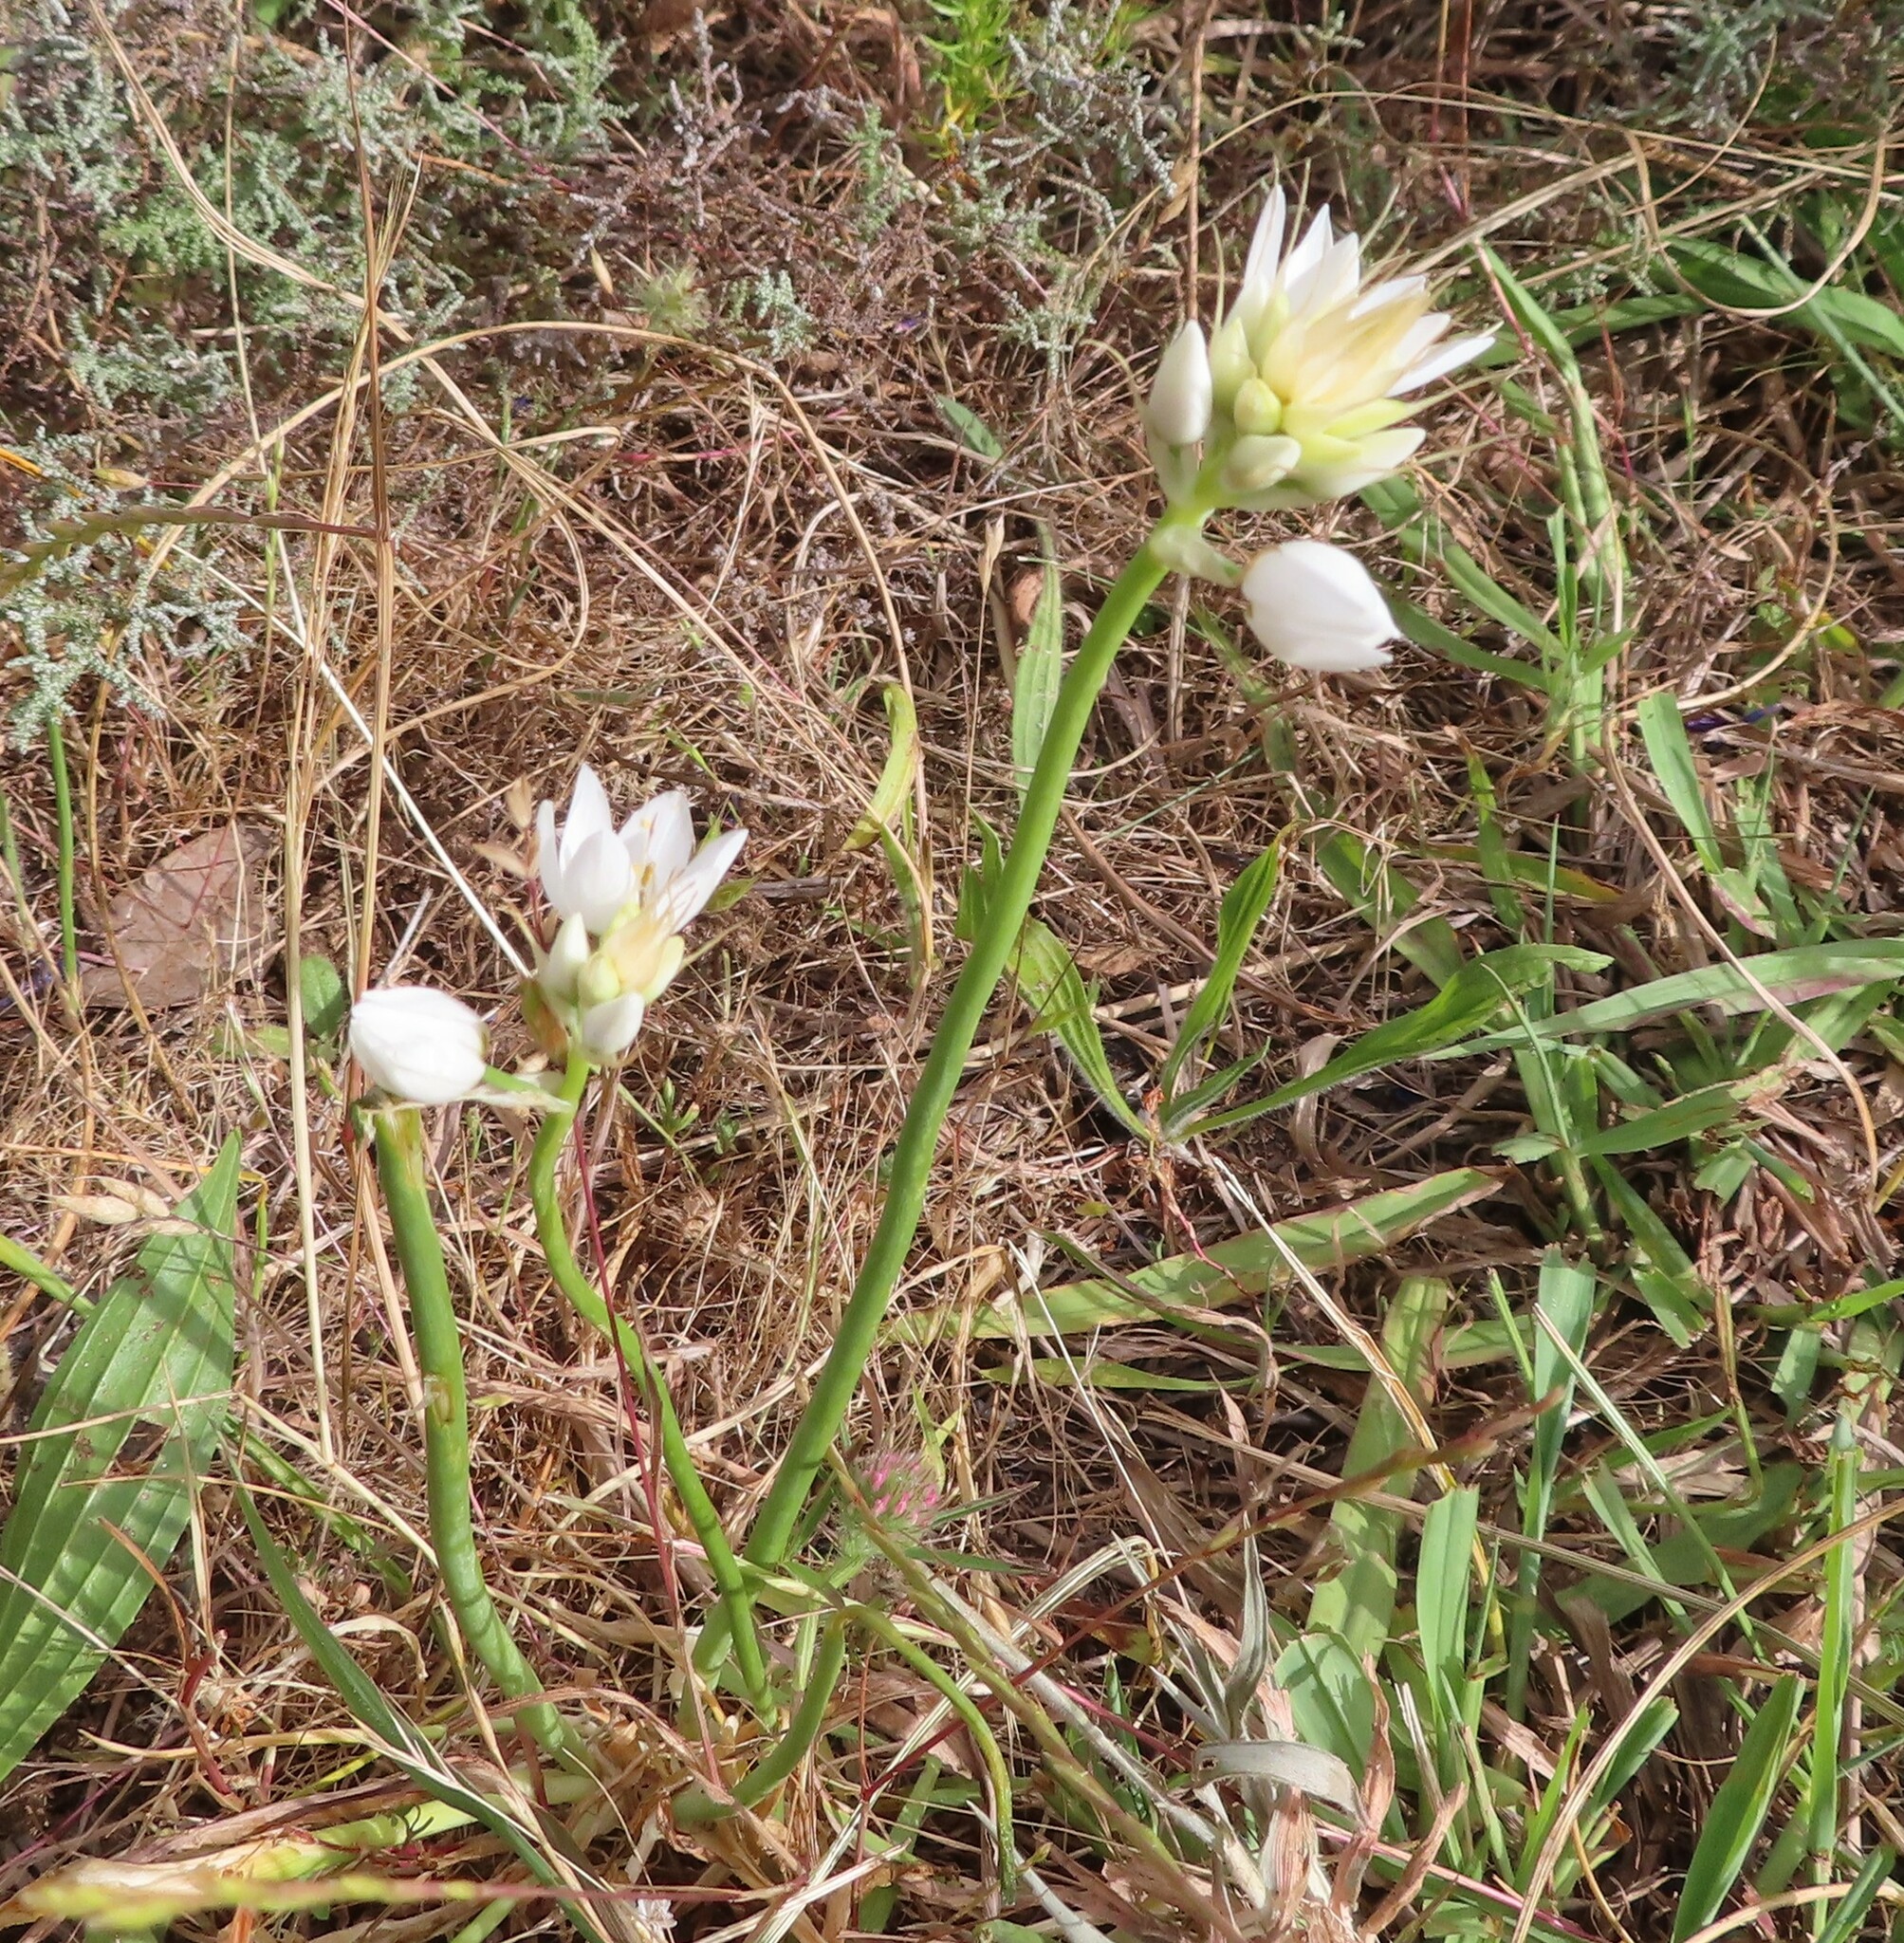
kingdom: Plantae
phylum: Tracheophyta
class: Liliopsida
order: Asparagales
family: Asparagaceae
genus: Ornithogalum
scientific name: Ornithogalum thyrsoides
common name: Chincherinchee
